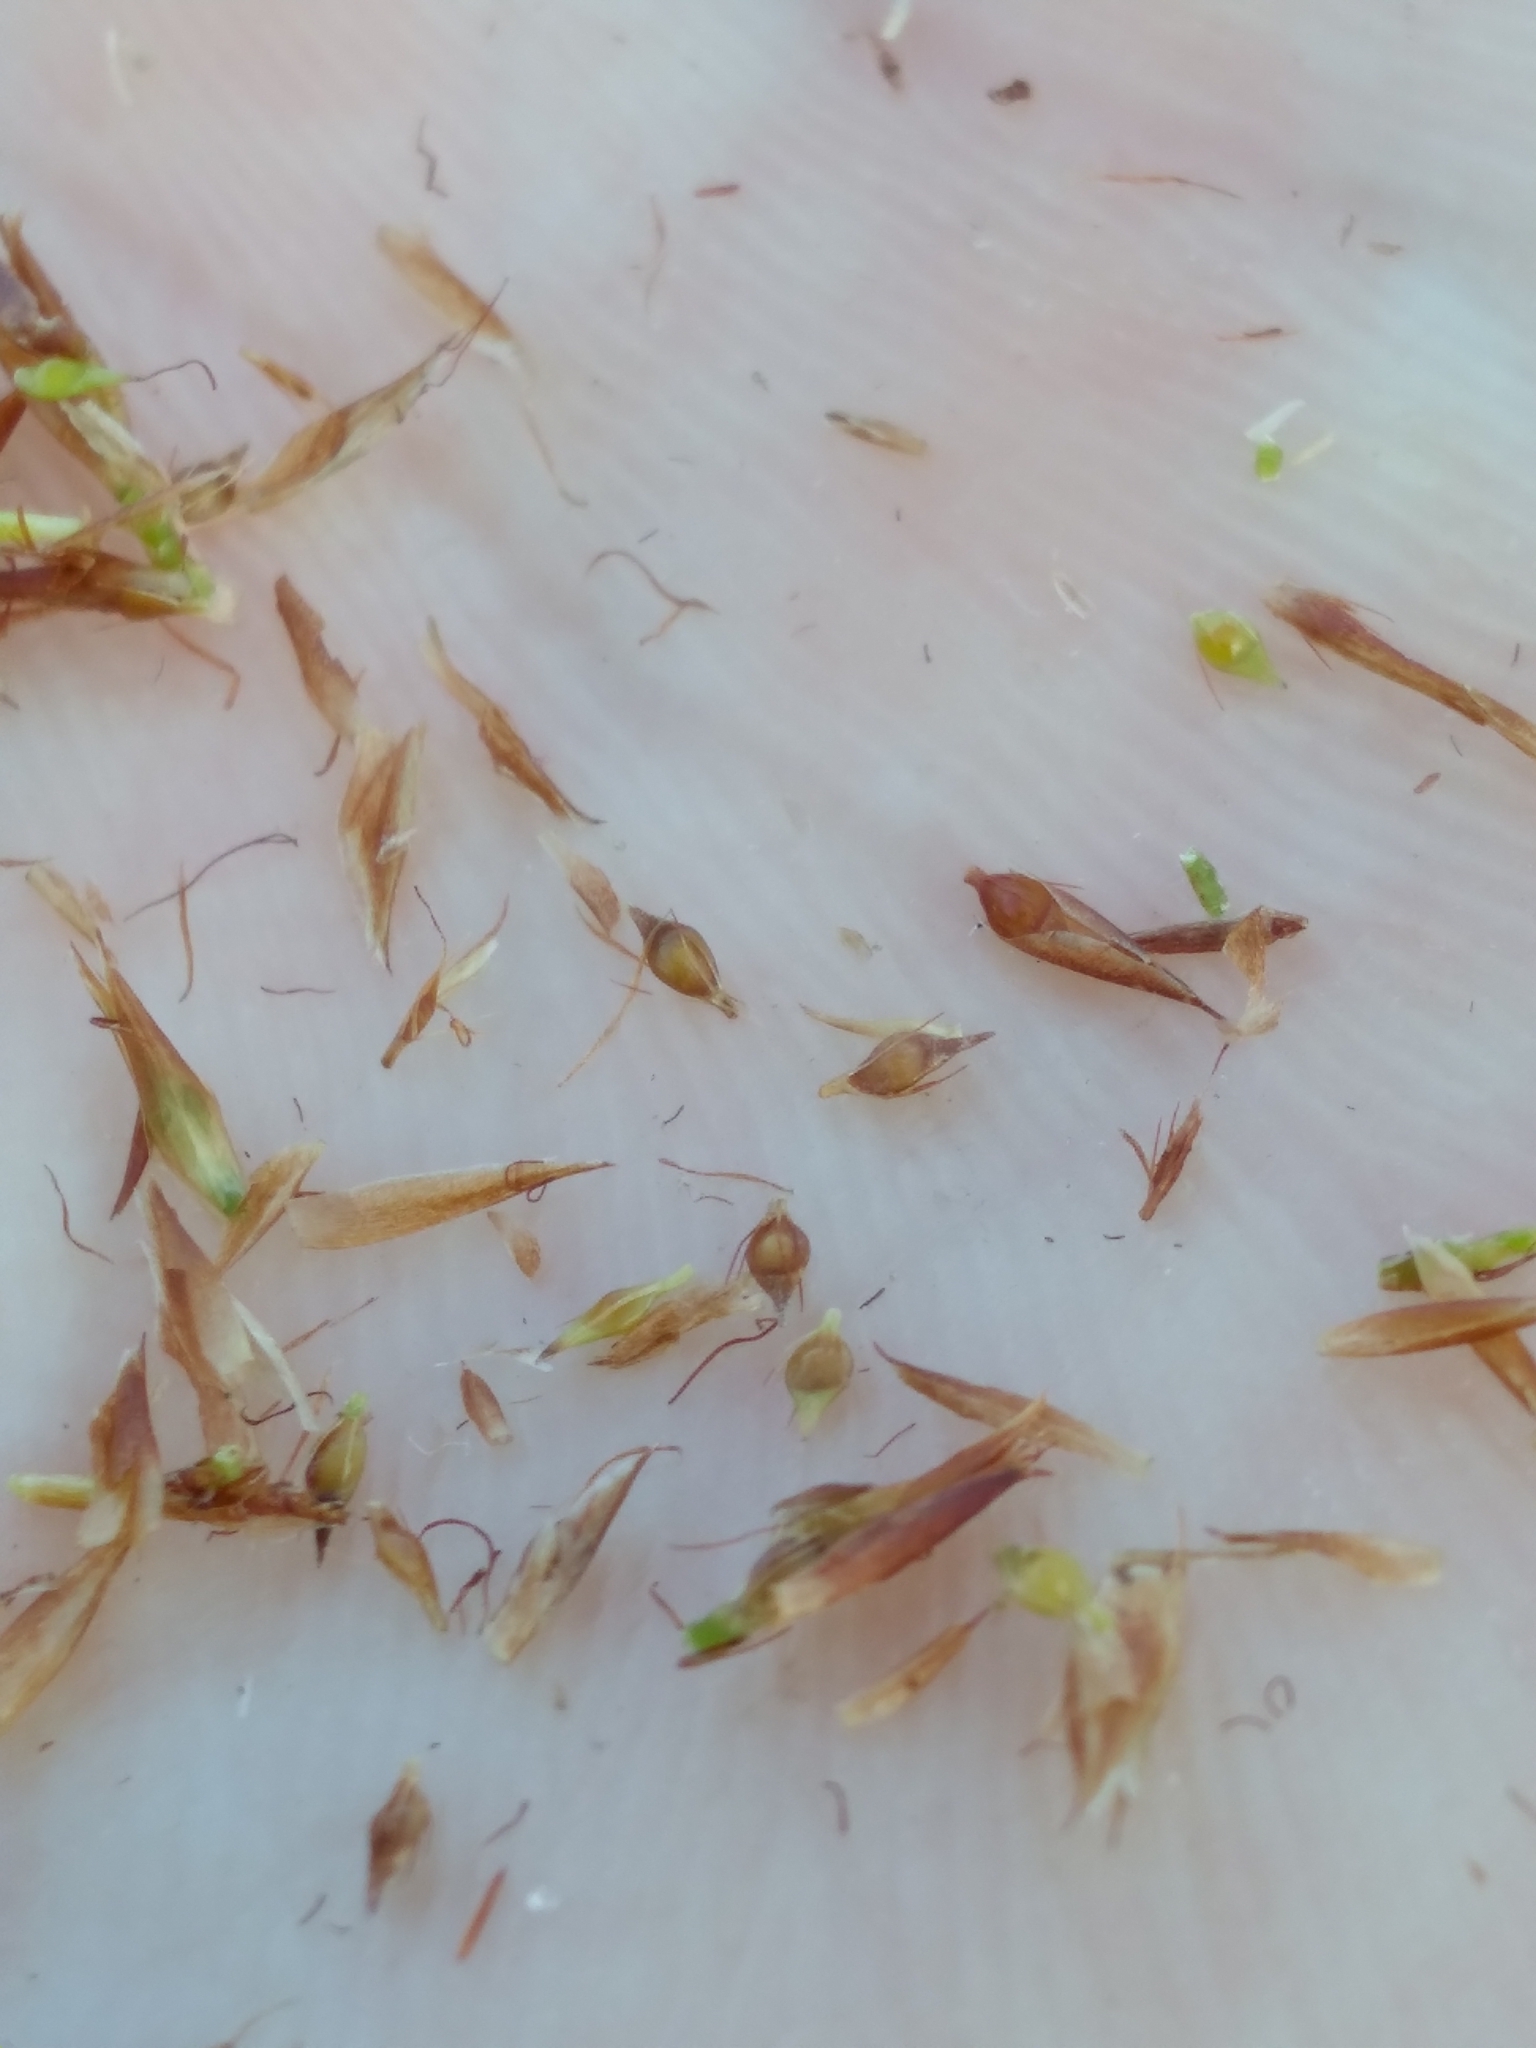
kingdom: Plantae
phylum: Tracheophyta
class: Liliopsida
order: Poales
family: Cyperaceae
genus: Rhynchospora
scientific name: Rhynchospora harperi
